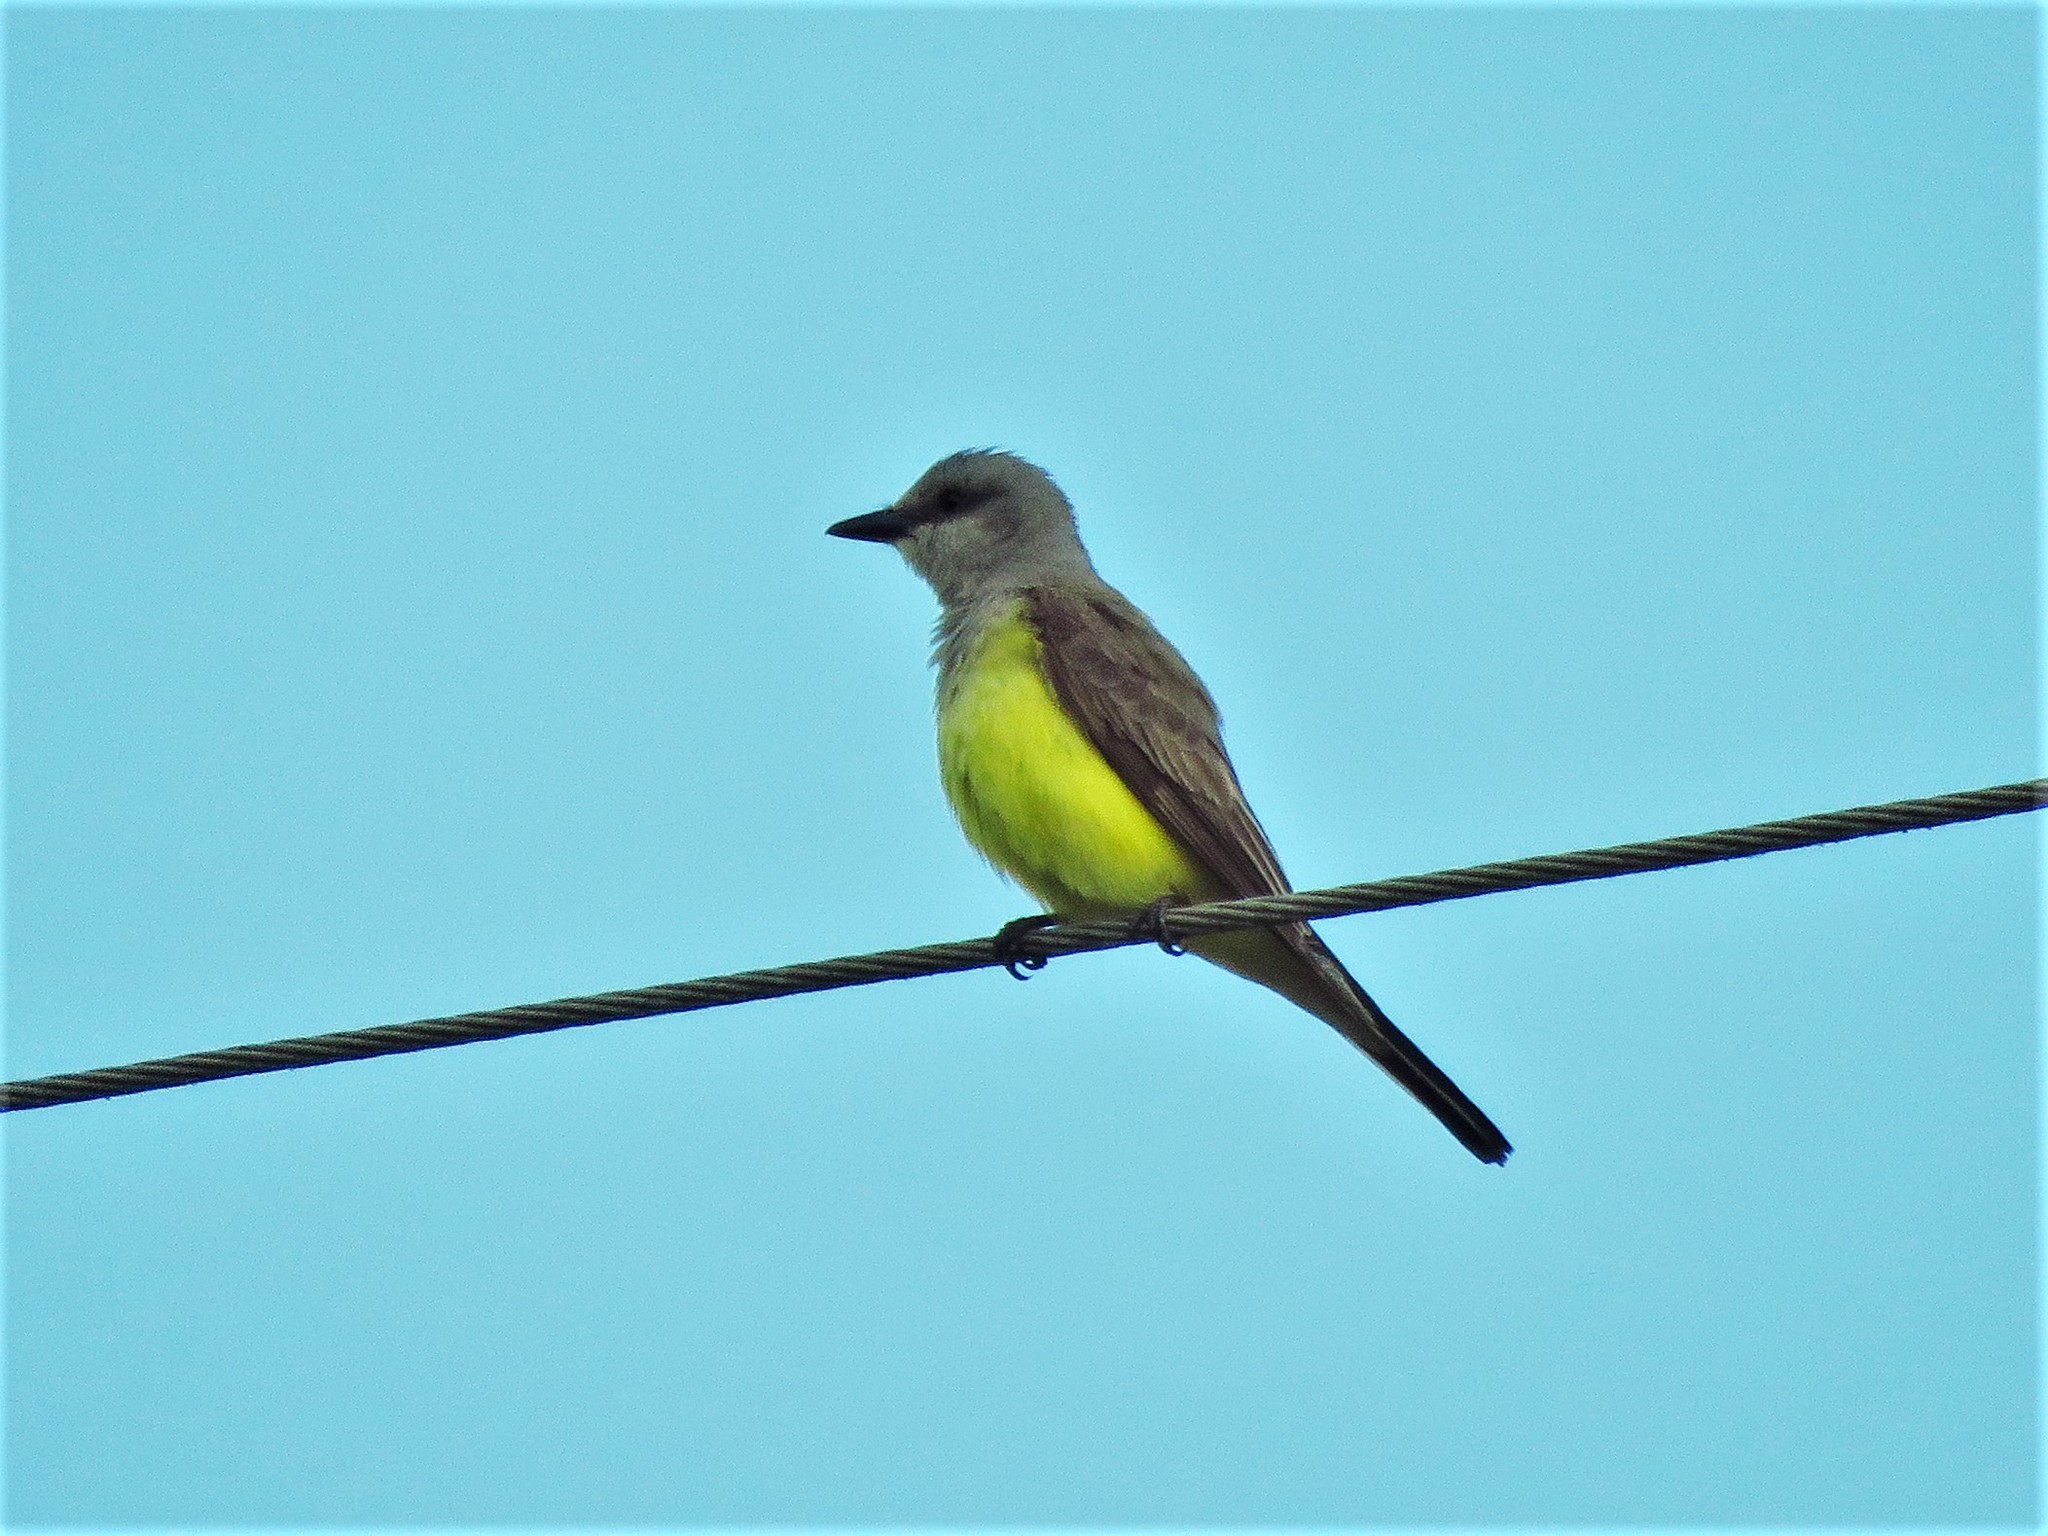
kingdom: Animalia
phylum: Chordata
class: Aves
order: Passeriformes
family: Tyrannidae
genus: Tyrannus
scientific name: Tyrannus verticalis
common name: Western kingbird
